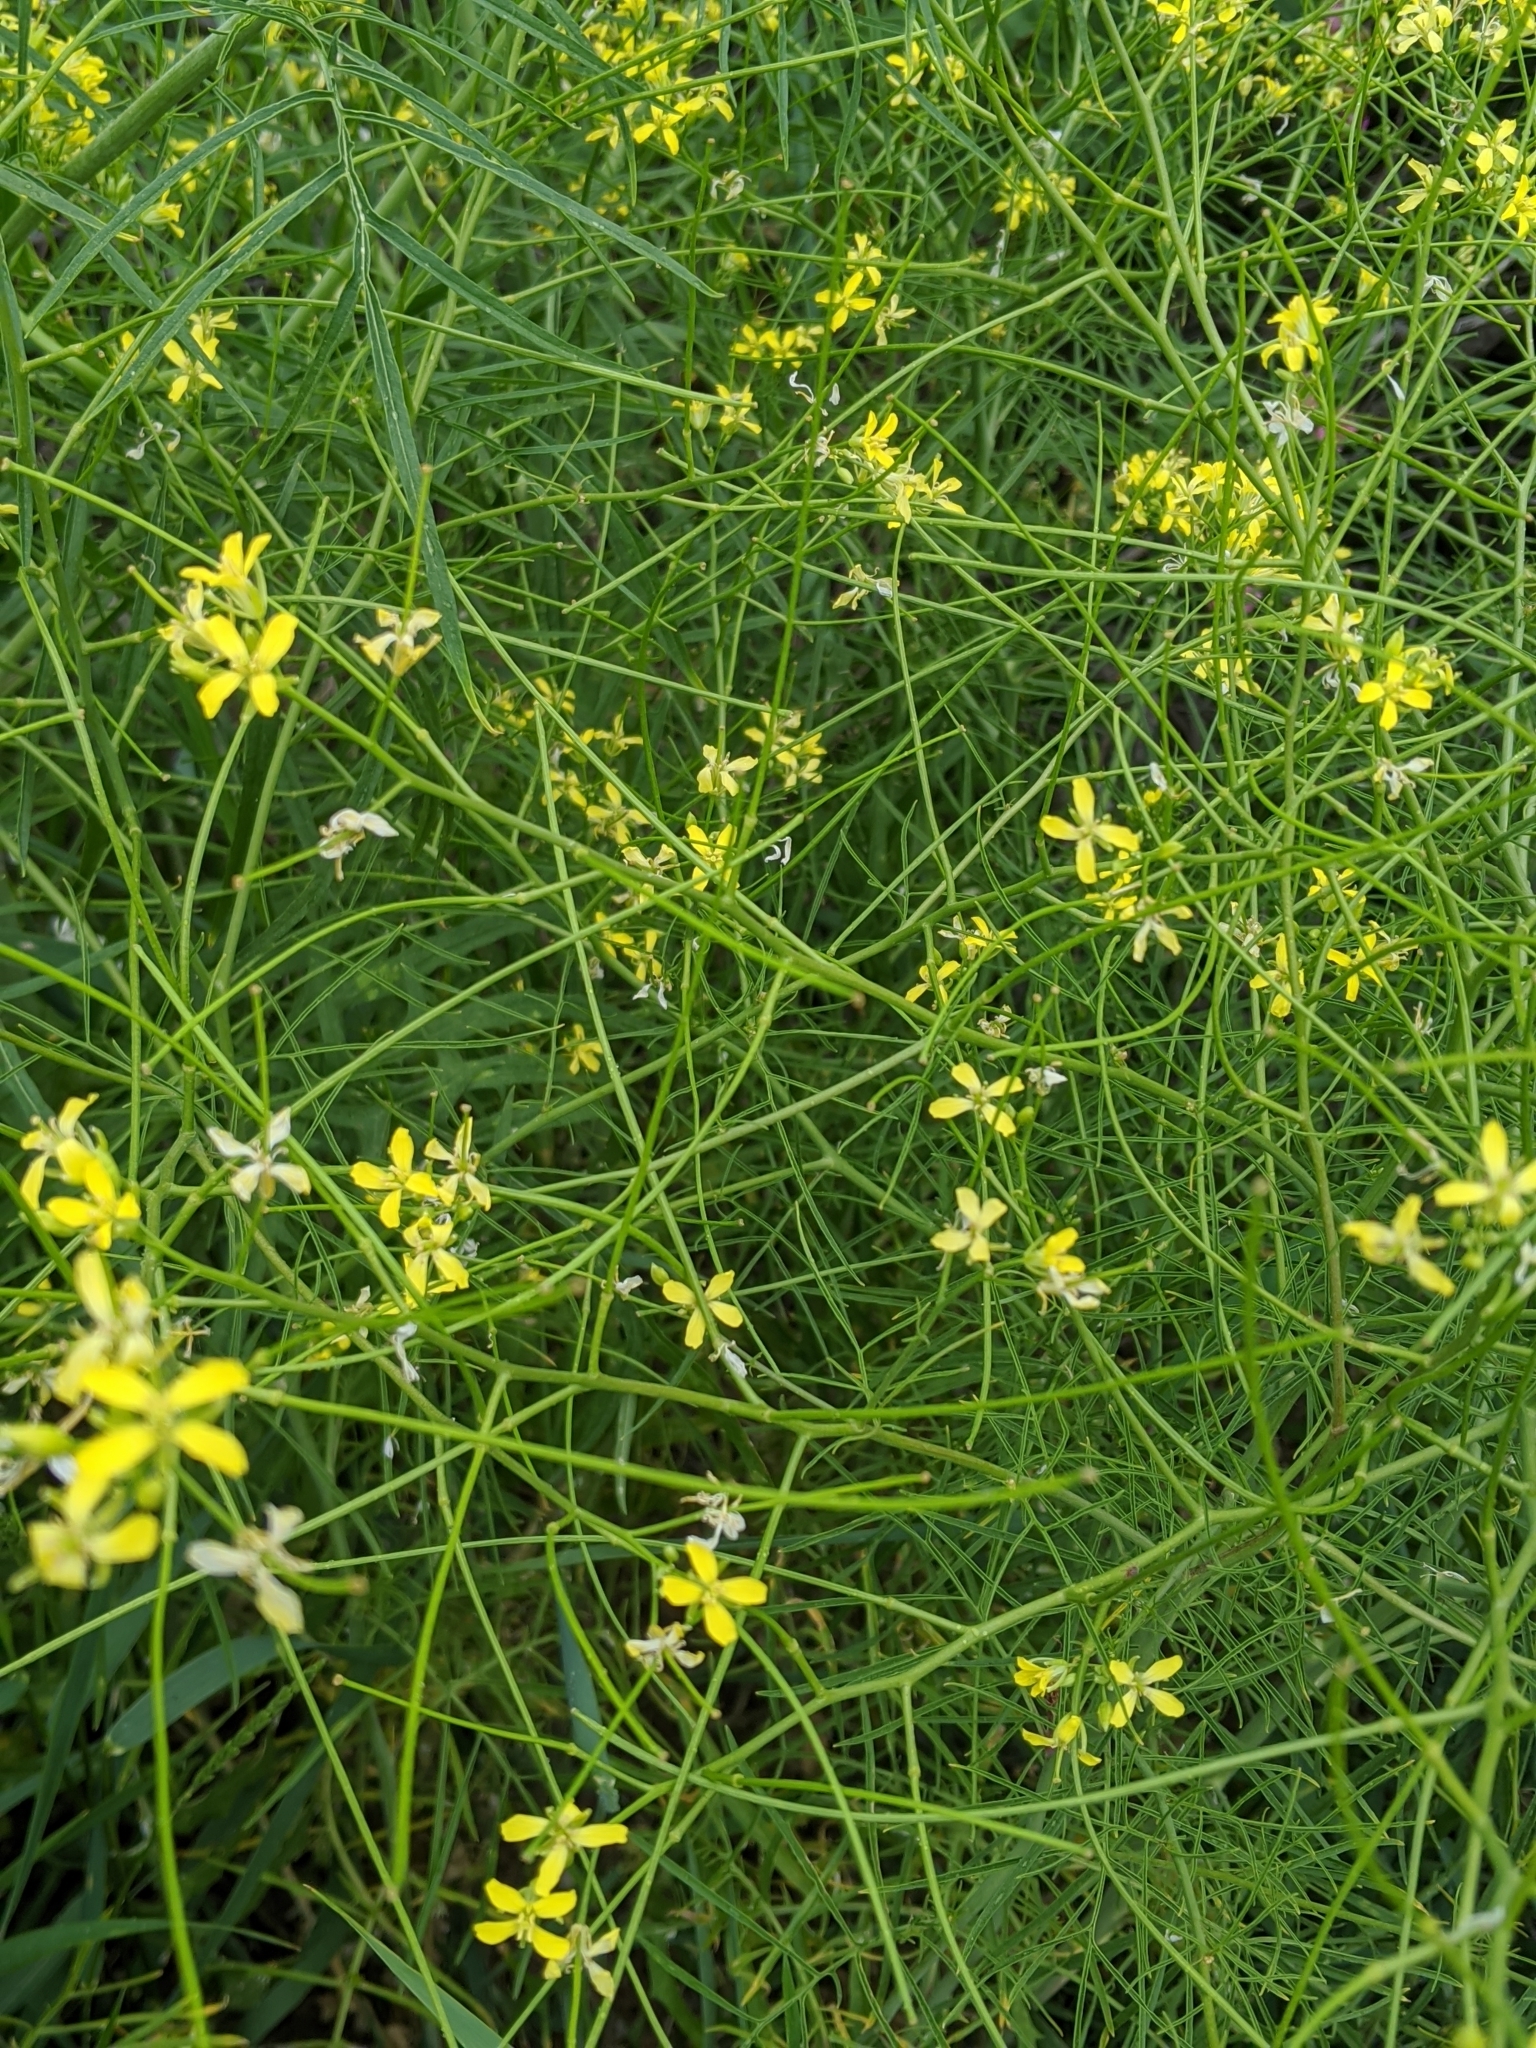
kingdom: Plantae
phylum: Tracheophyta
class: Magnoliopsida
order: Brassicales
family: Brassicaceae
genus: Sisymbrium
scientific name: Sisymbrium altissimum
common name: Tall rocket
